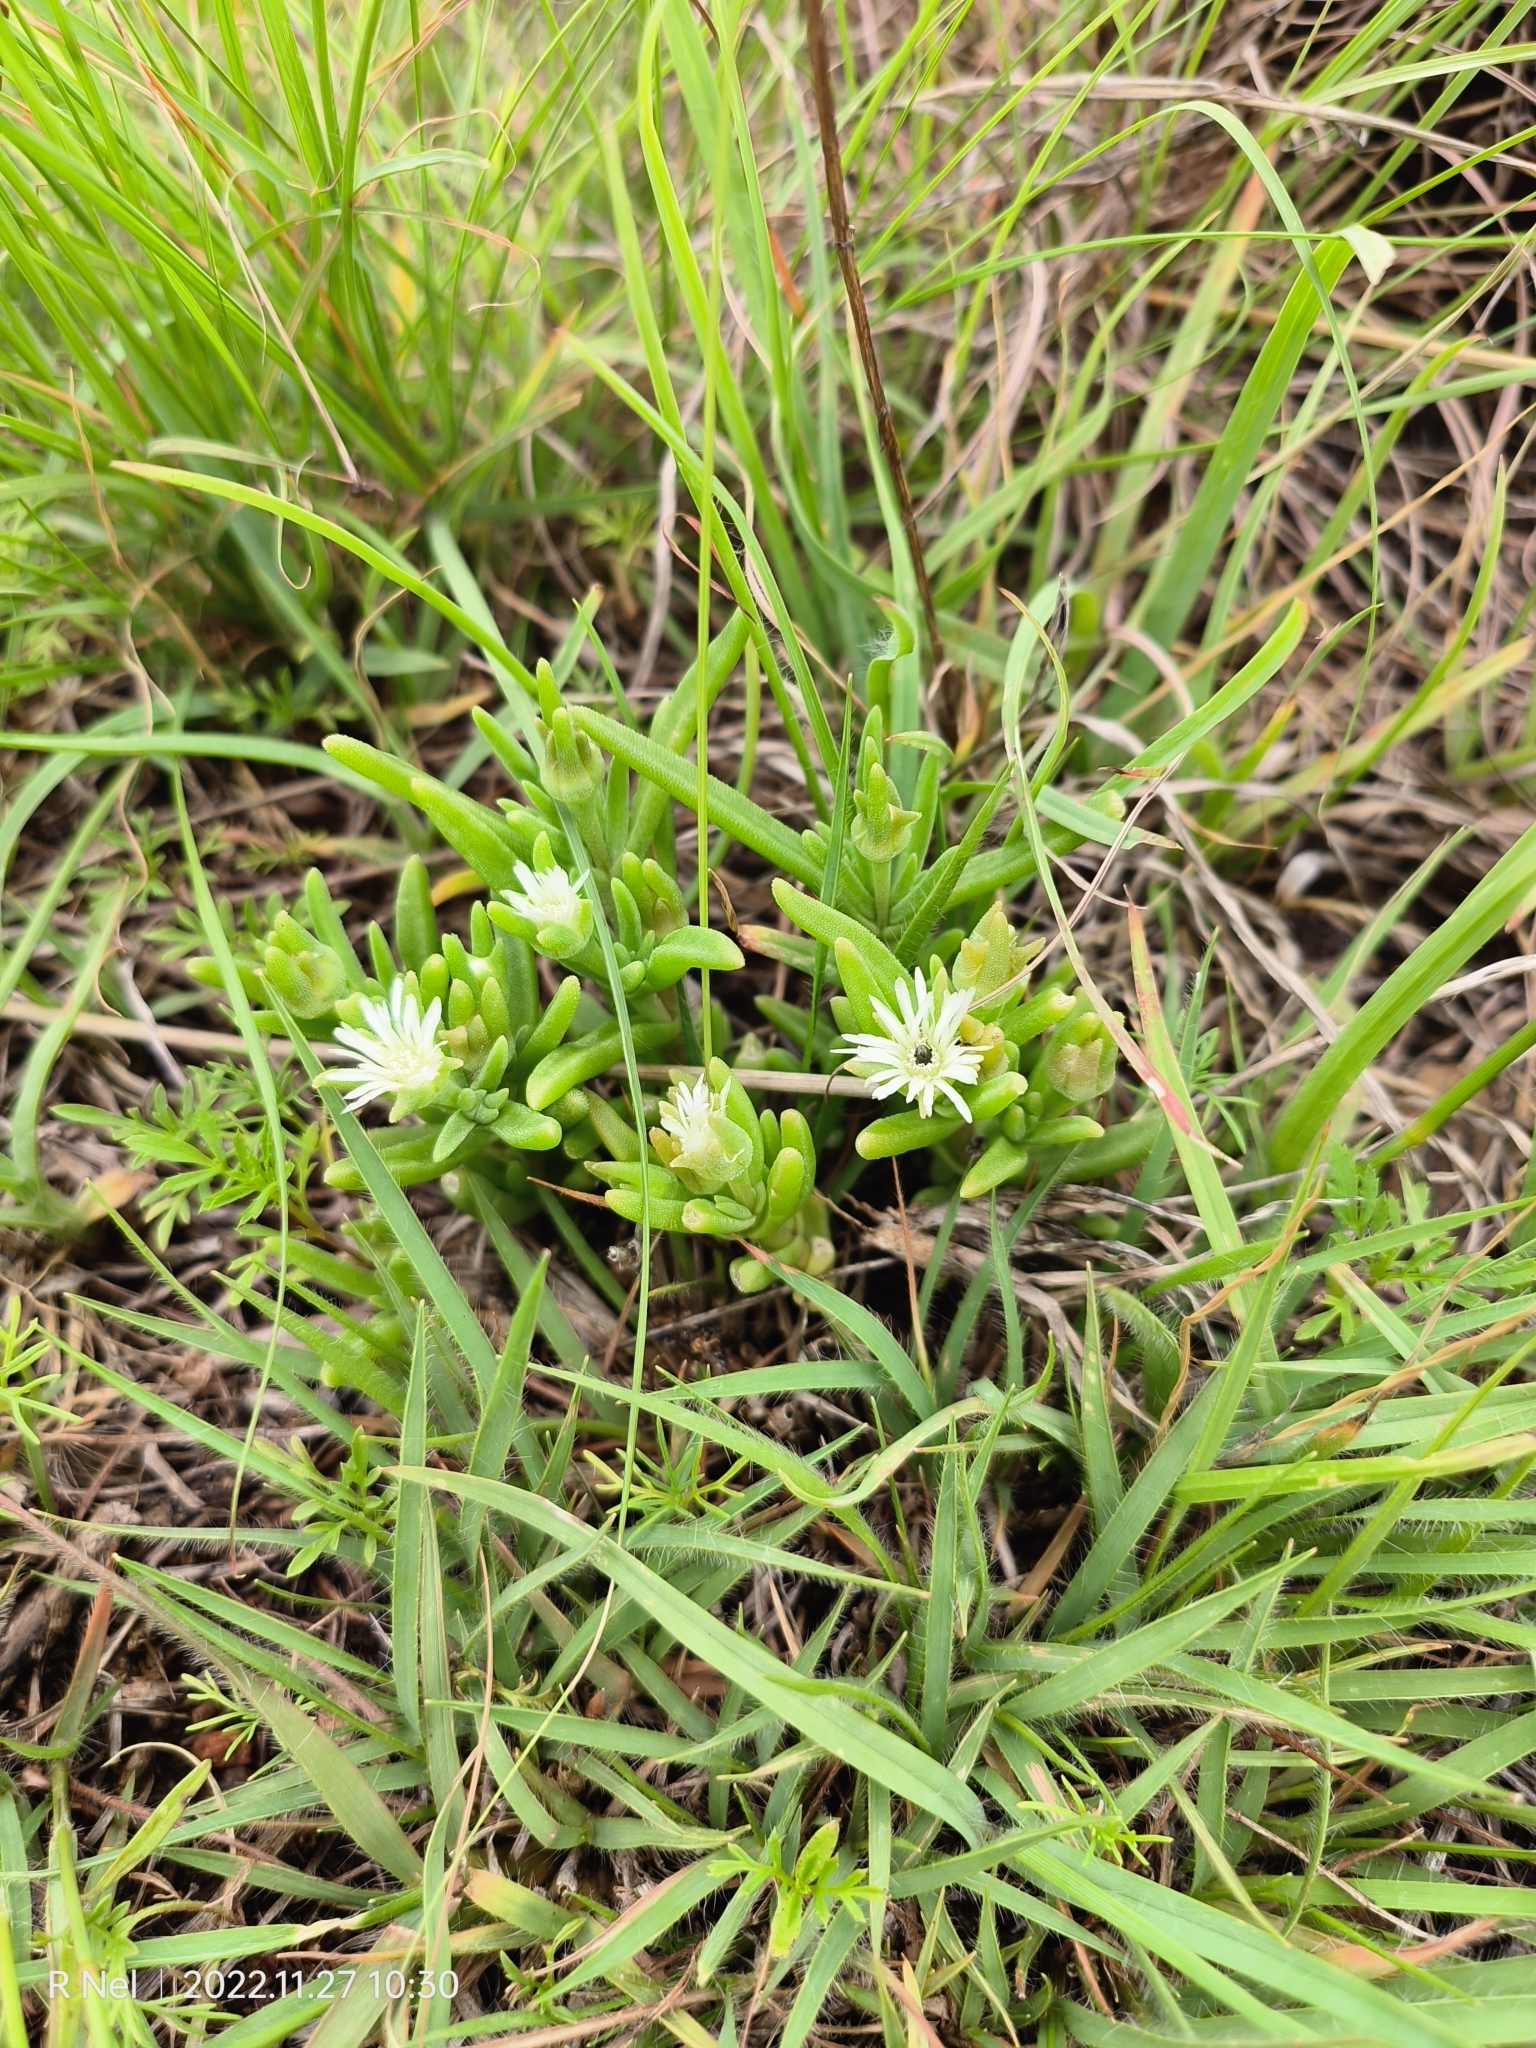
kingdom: Plantae
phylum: Tracheophyta
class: Magnoliopsida
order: Caryophyllales
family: Aizoaceae
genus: Delosperma
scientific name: Delosperma herbeum
